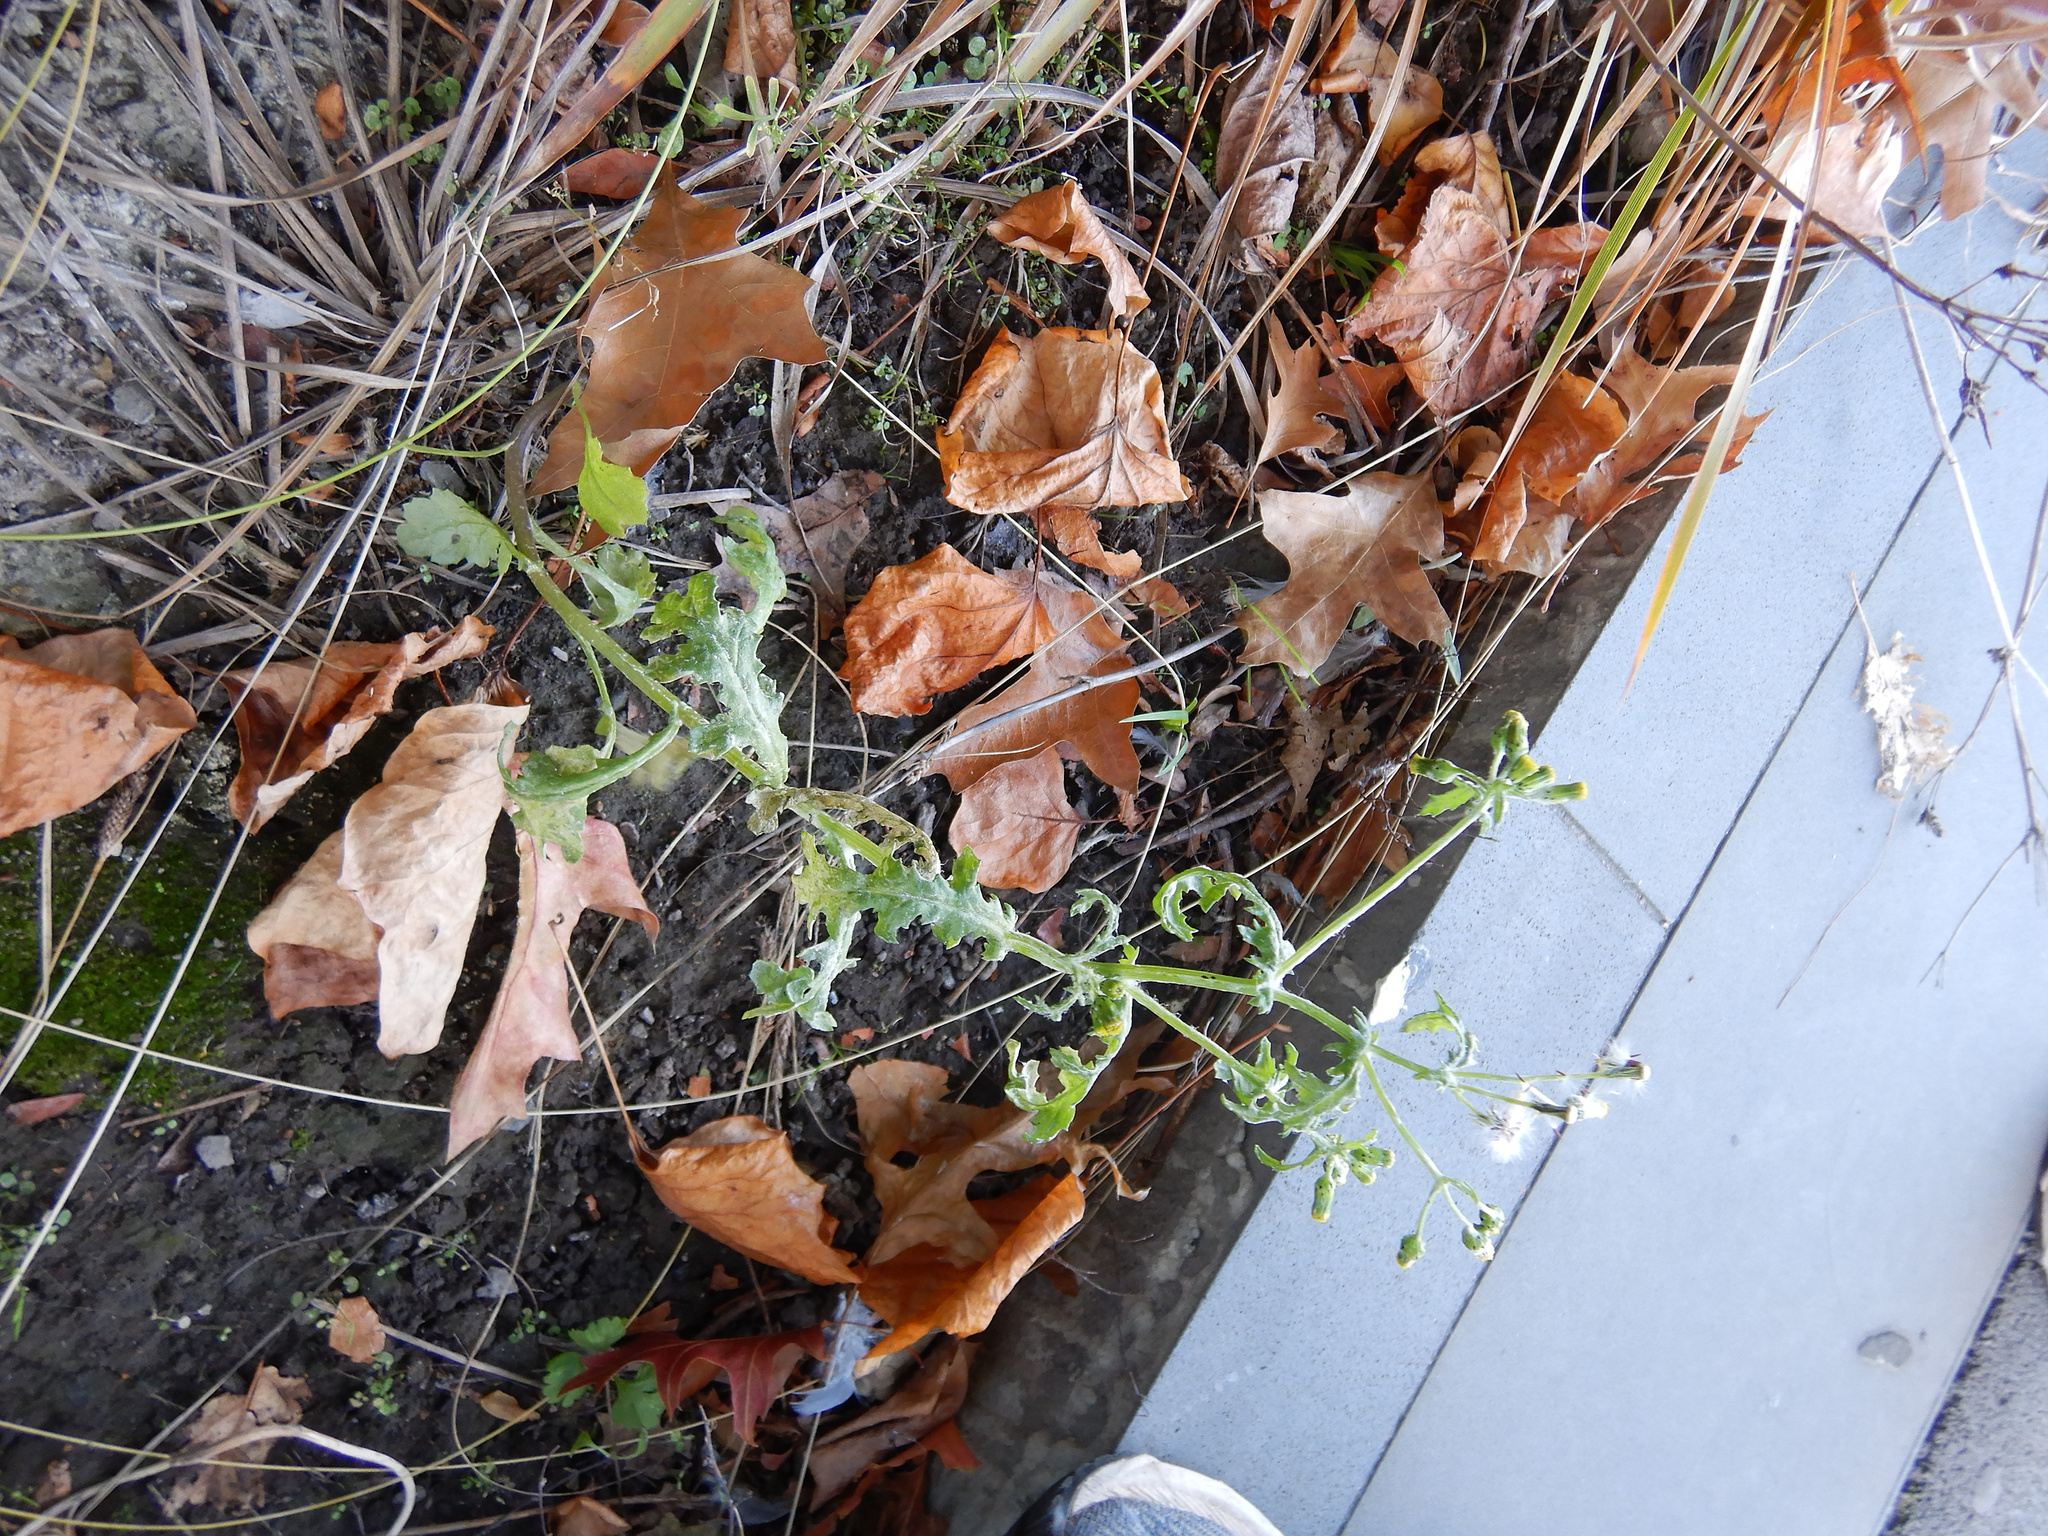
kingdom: Plantae
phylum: Tracheophyta
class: Magnoliopsida
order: Asterales
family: Asteraceae
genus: Senecio
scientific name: Senecio vulgaris
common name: Old-man-in-the-spring
